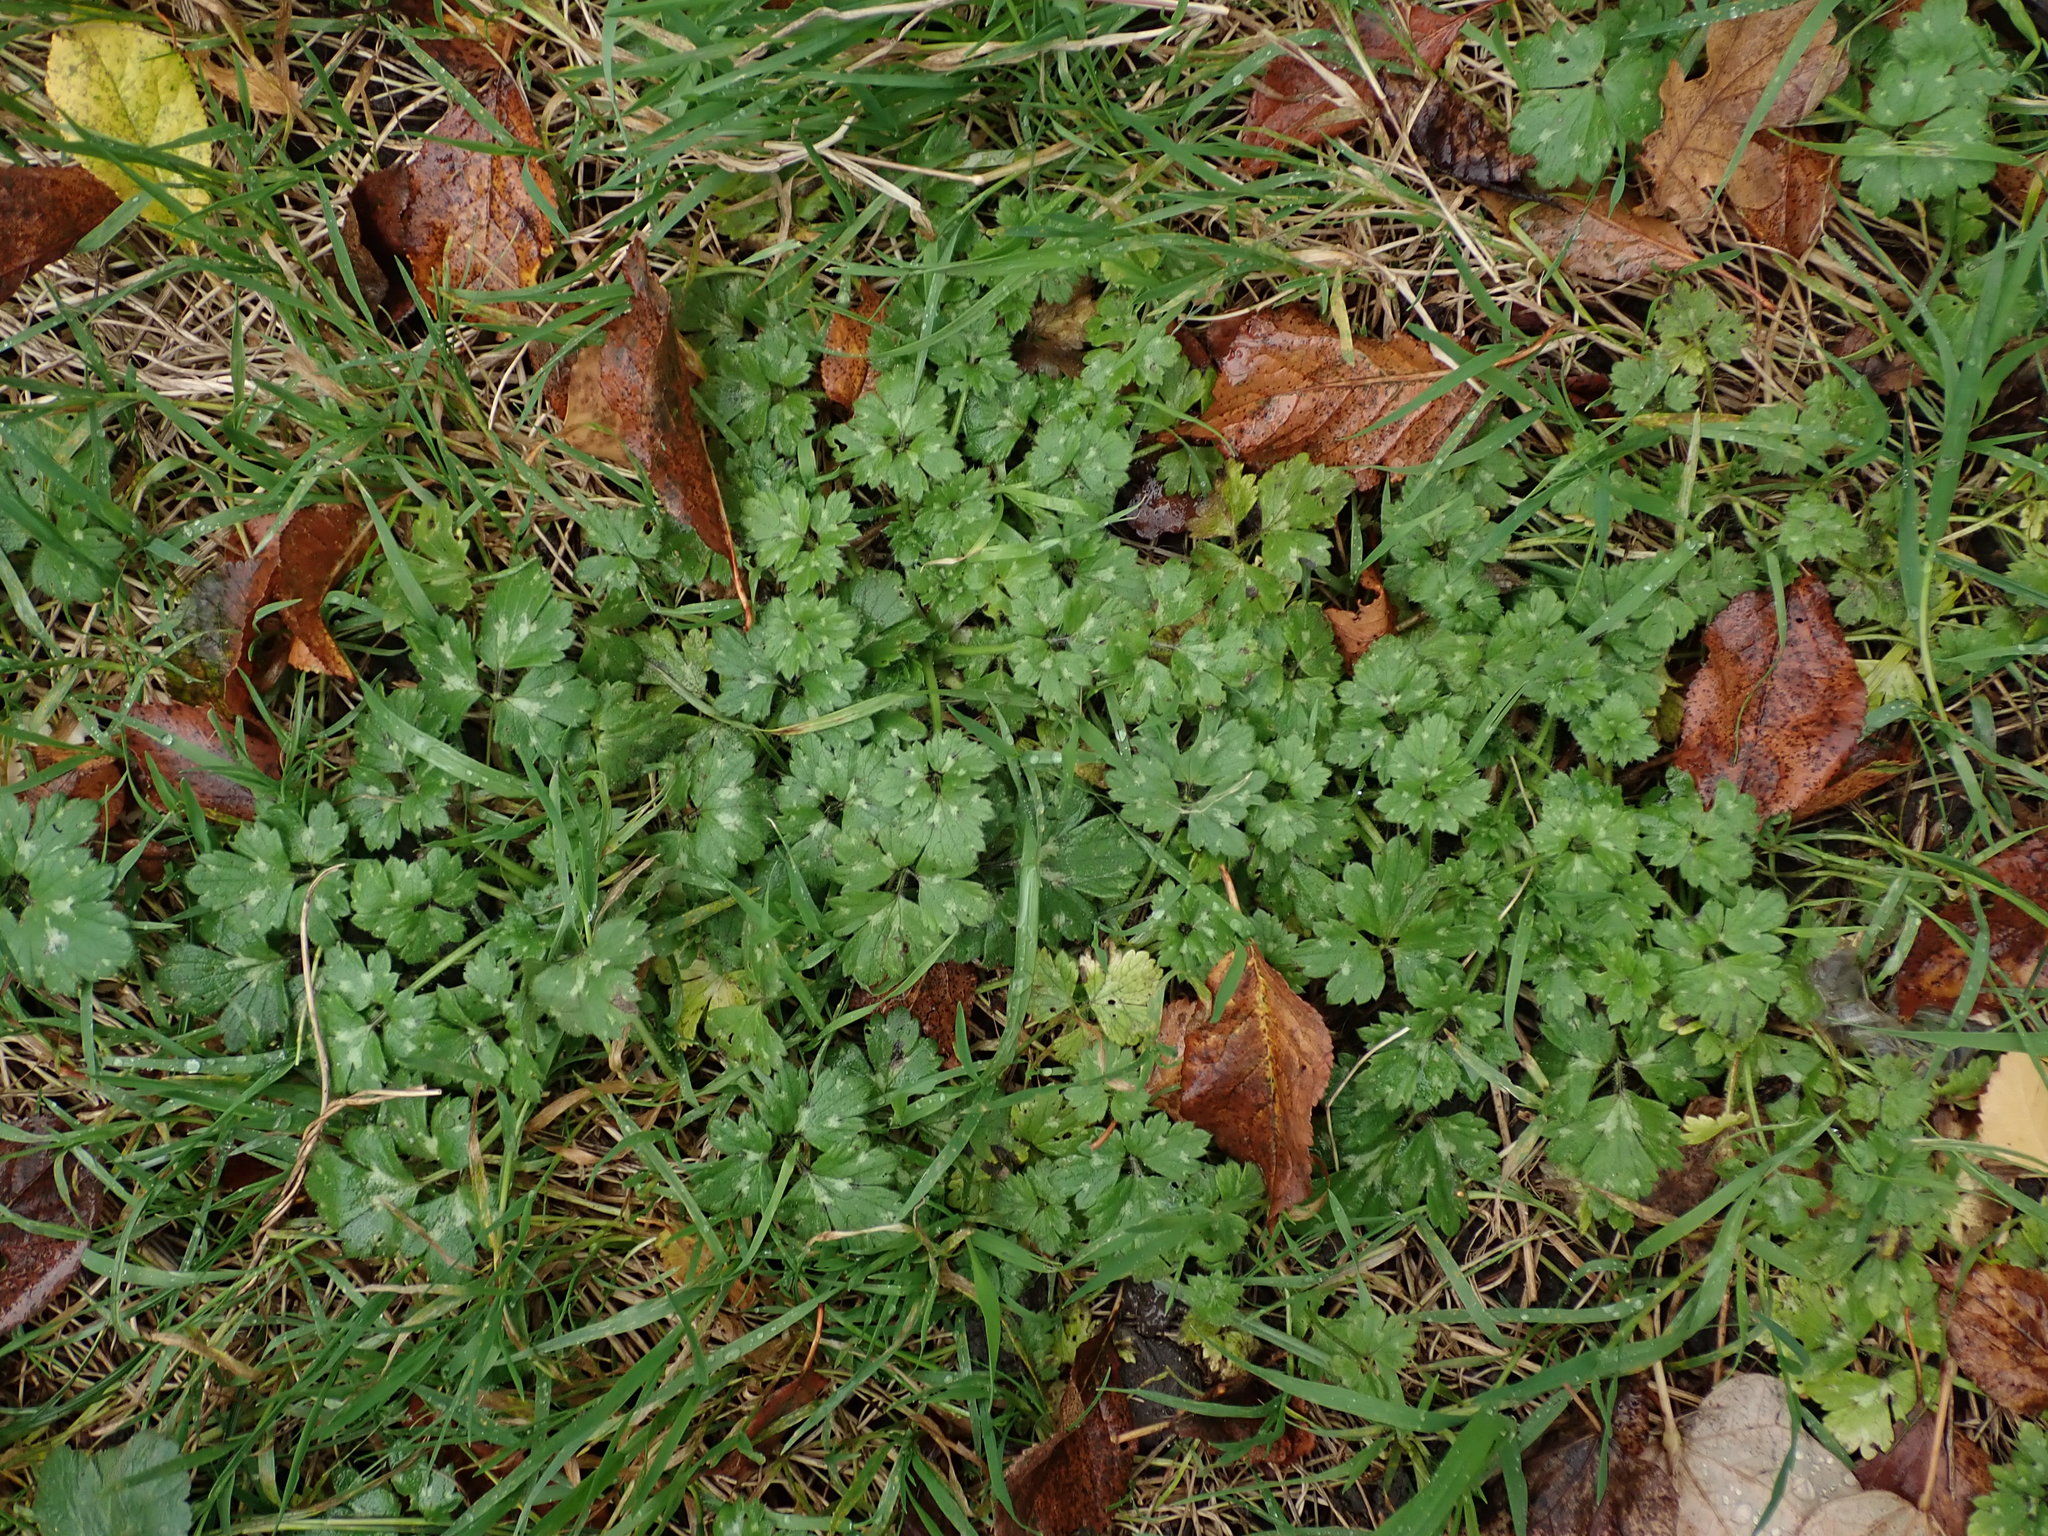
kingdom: Plantae
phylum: Tracheophyta
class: Magnoliopsida
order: Ranunculales
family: Ranunculaceae
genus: Ranunculus
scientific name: Ranunculus repens
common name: Creeping buttercup
